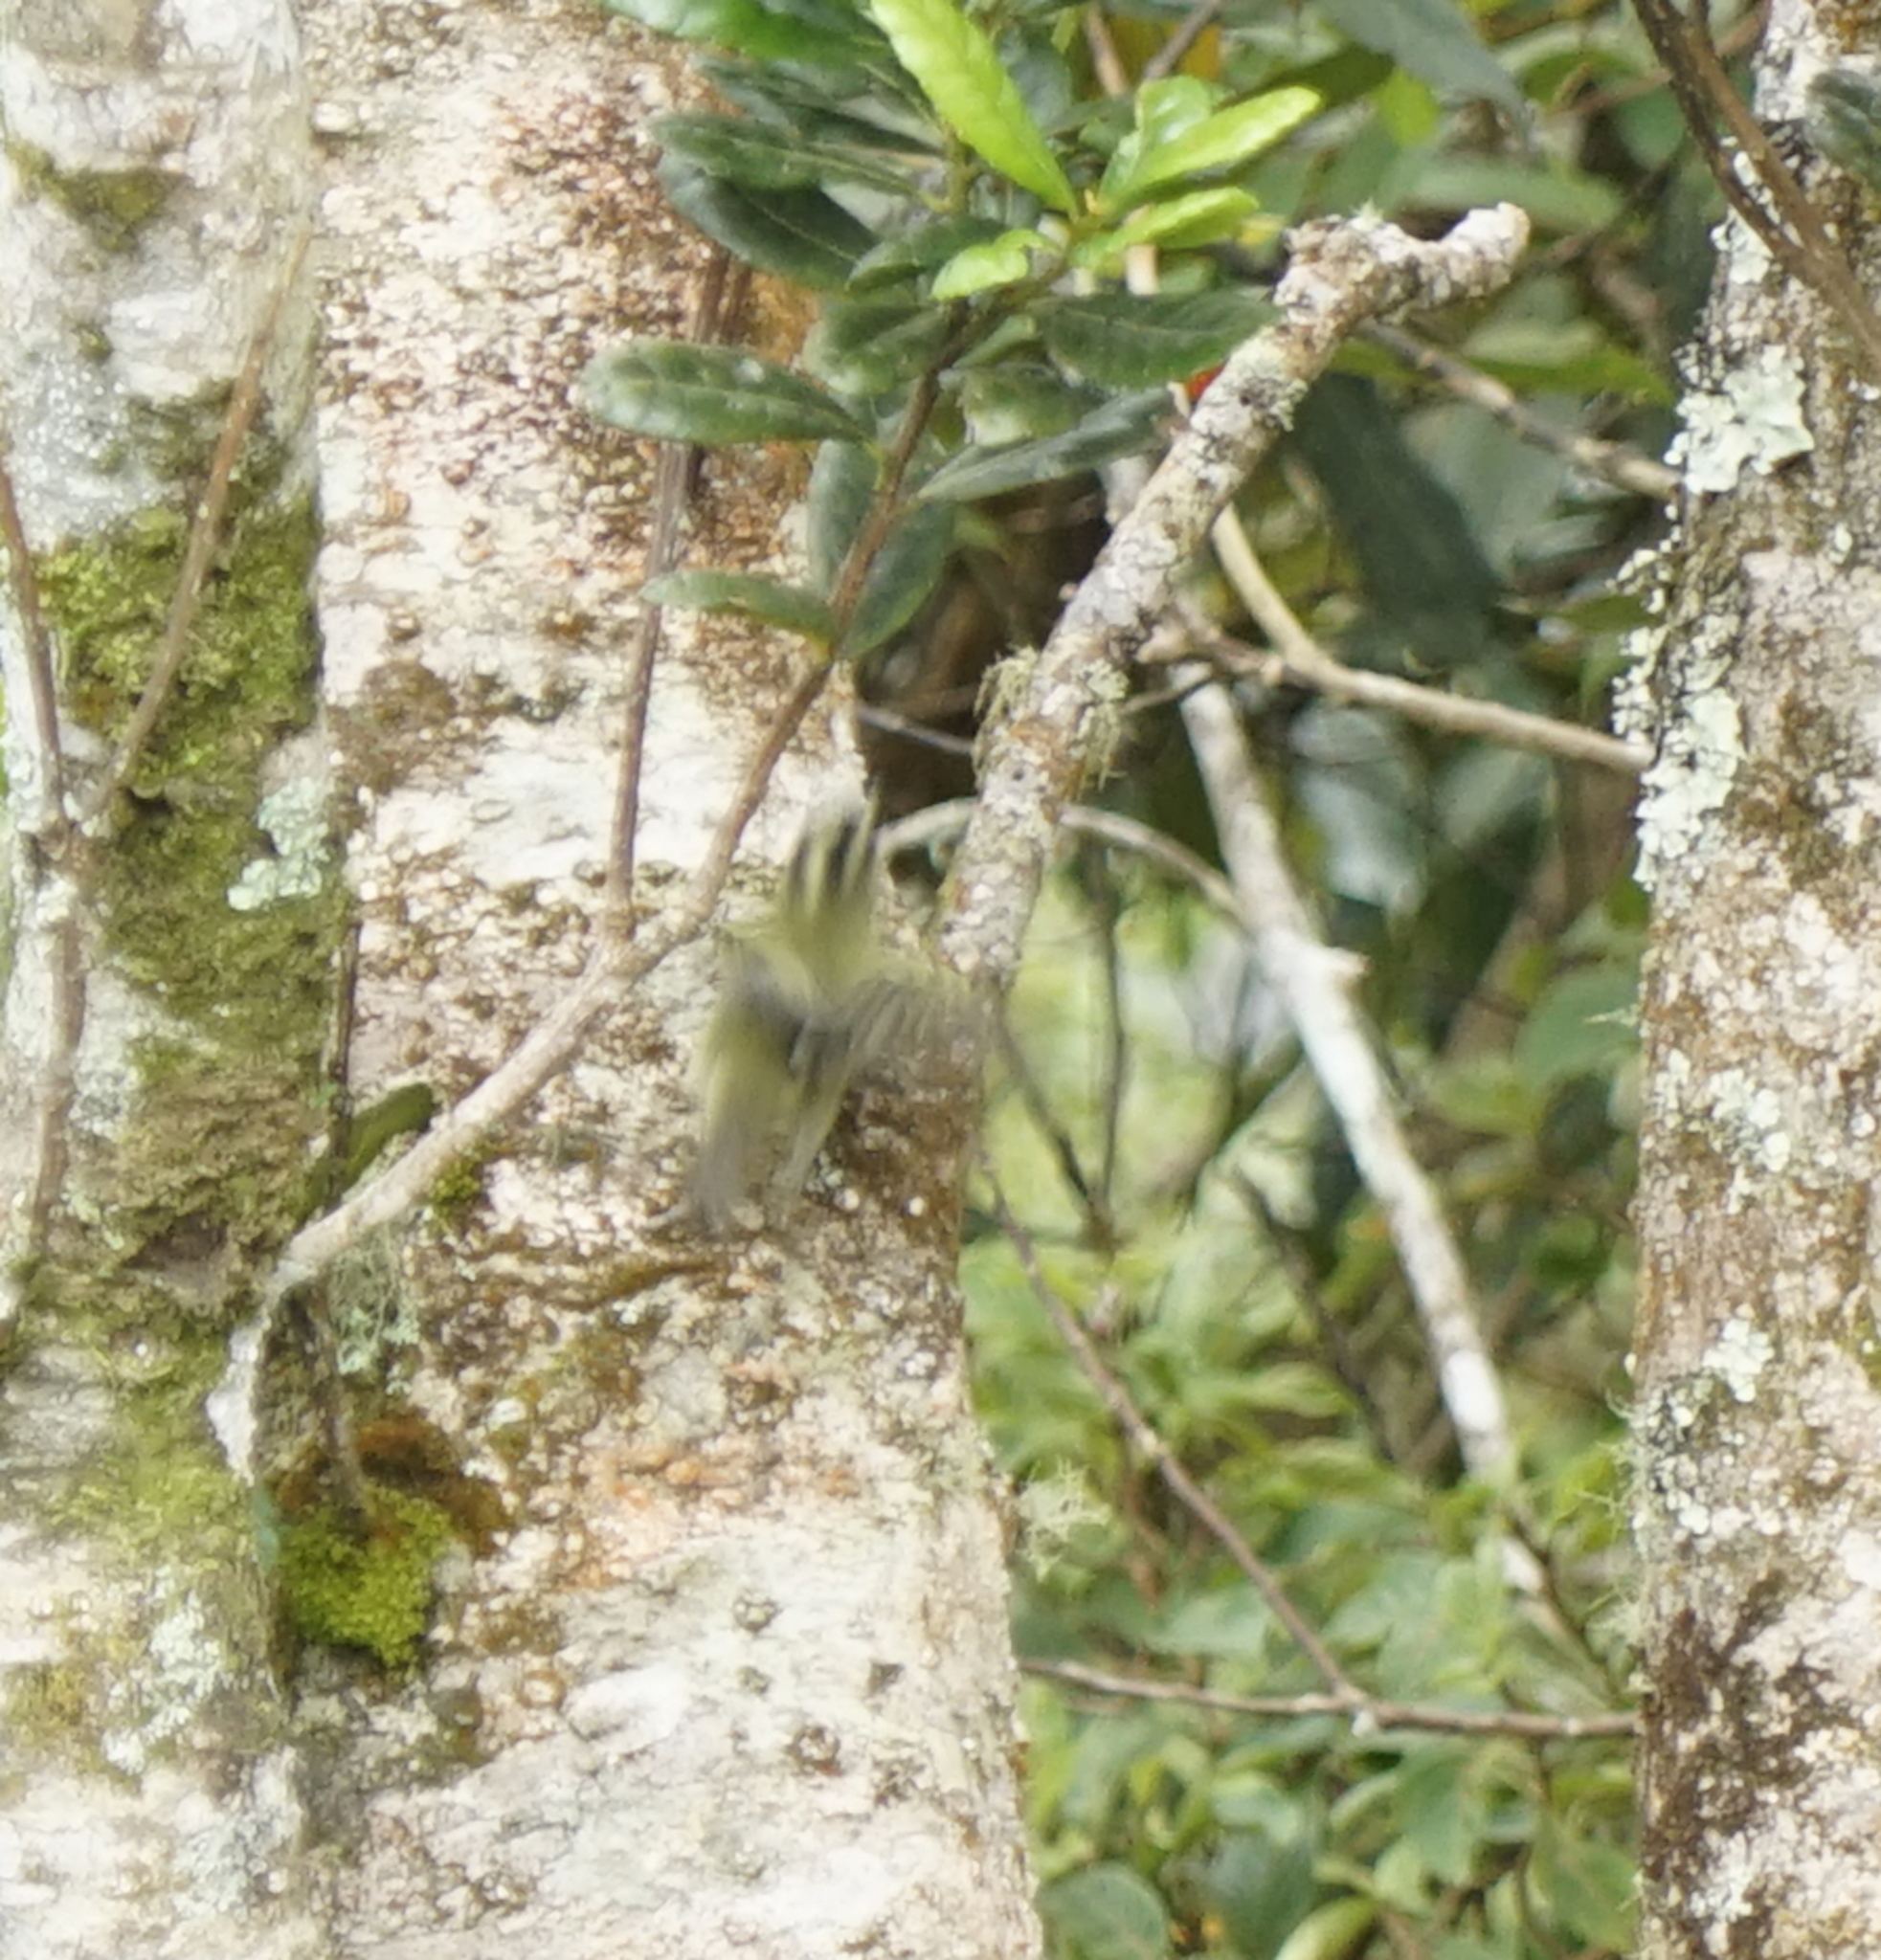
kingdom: Animalia
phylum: Chordata
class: Aves
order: Passeriformes
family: Phylloscopidae
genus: Phylloscopus
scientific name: Phylloscopus trivirgatus
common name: Mountain leaf warbler
